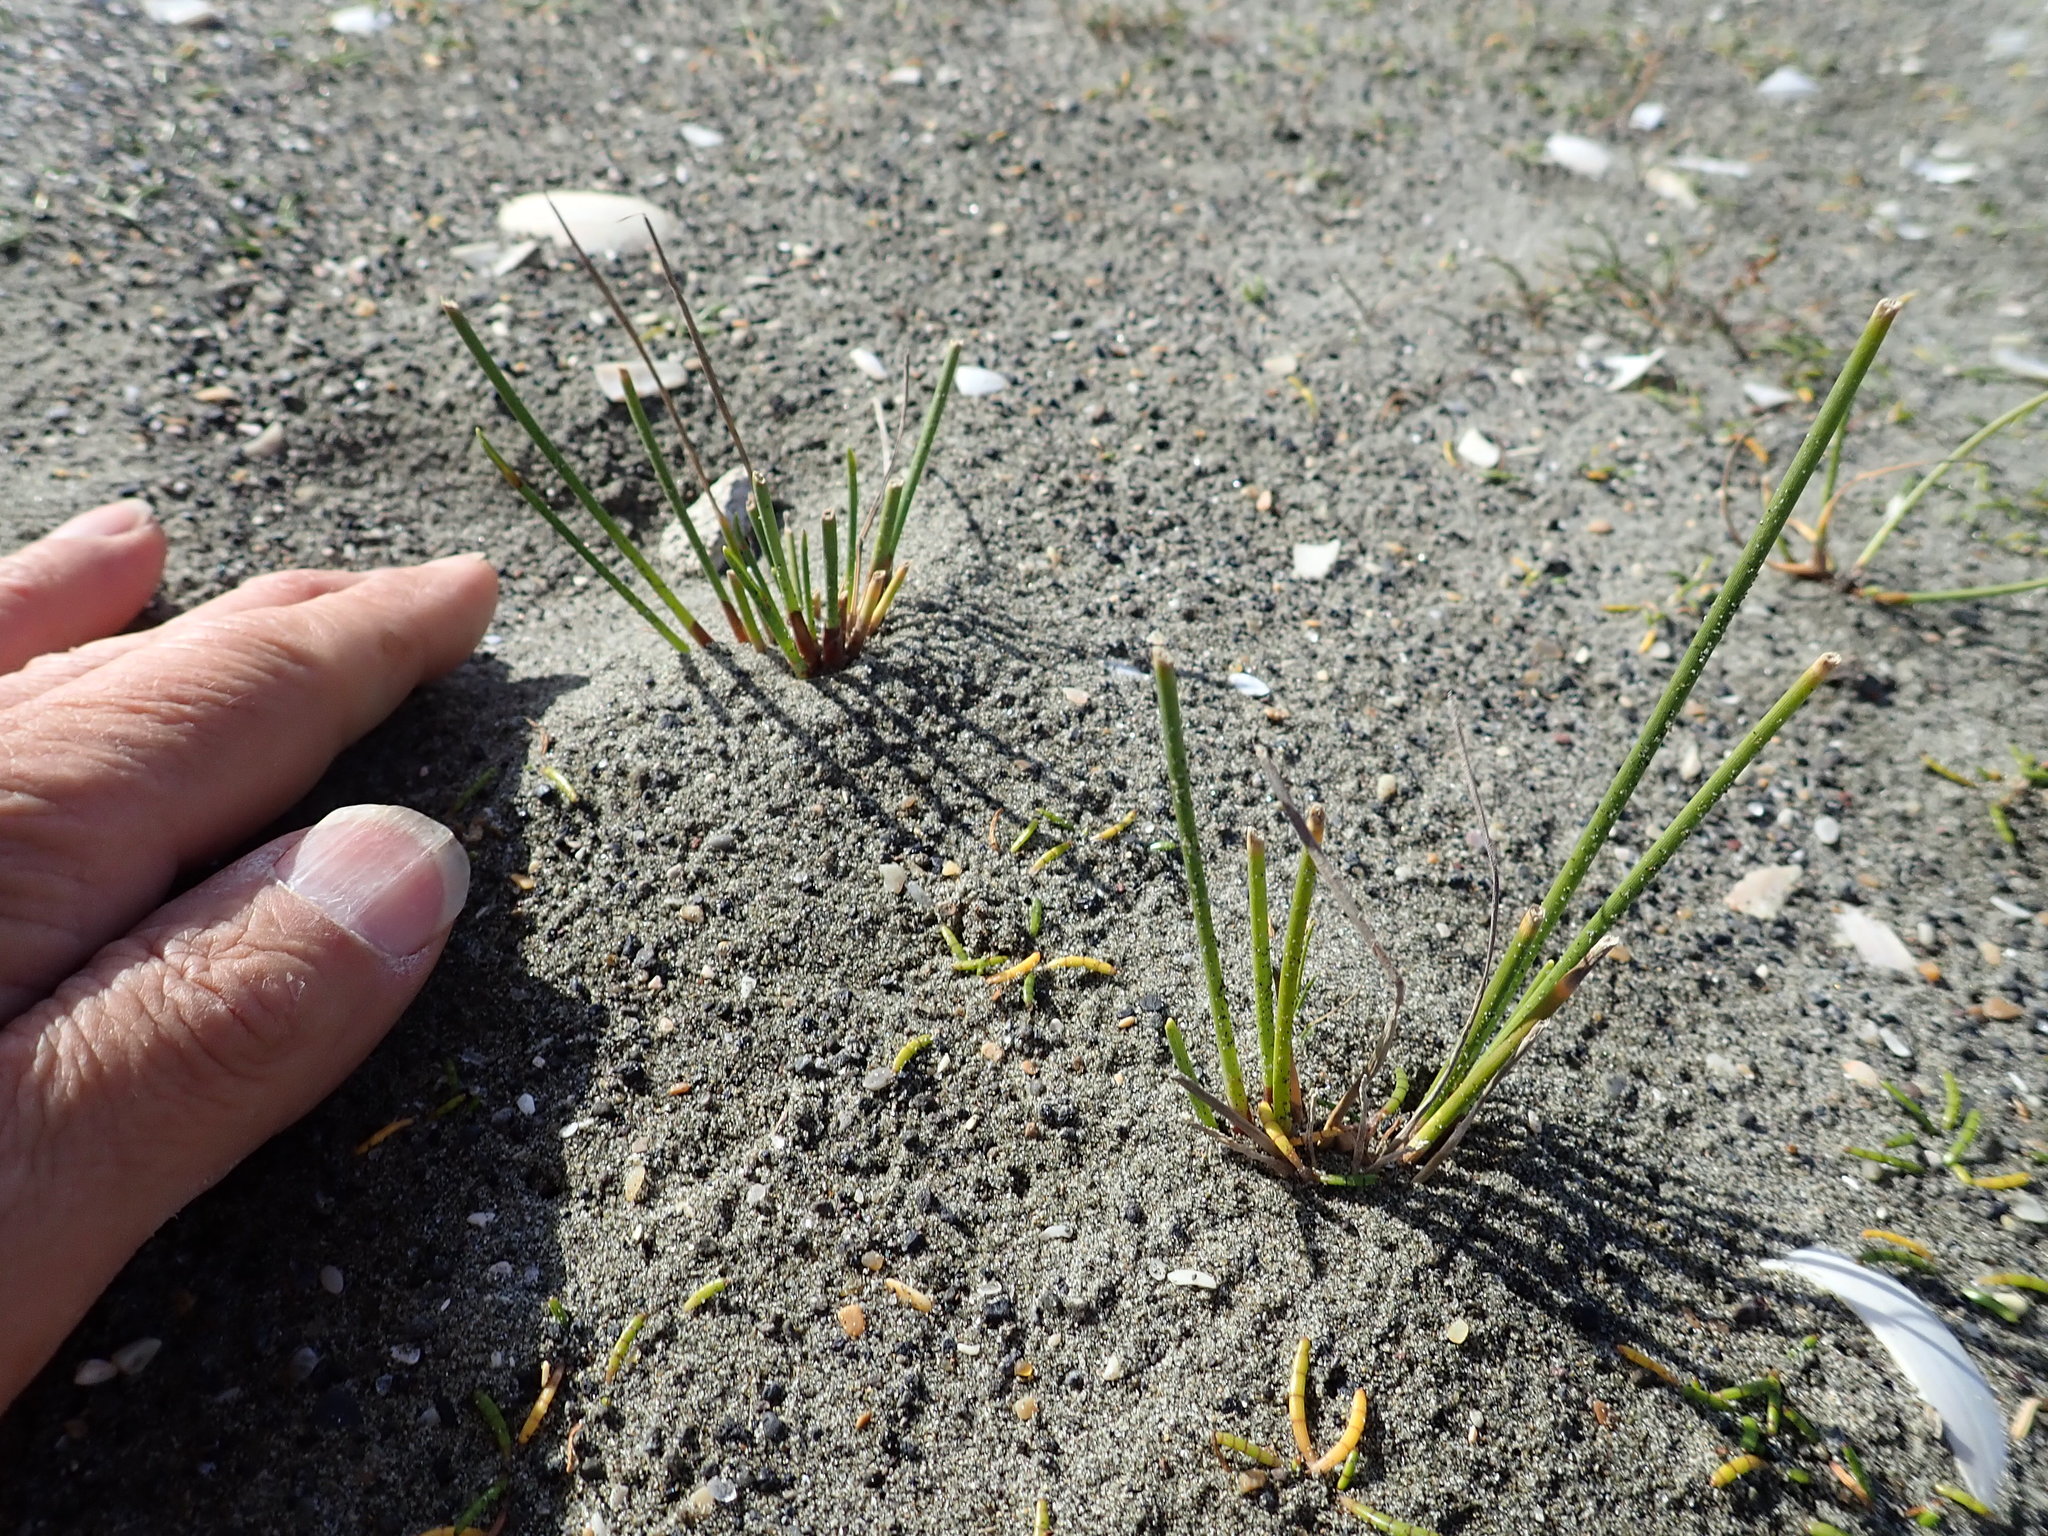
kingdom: Plantae
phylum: Tracheophyta
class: Liliopsida
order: Poales
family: Cyperaceae
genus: Ficinia
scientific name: Ficinia nodosa
